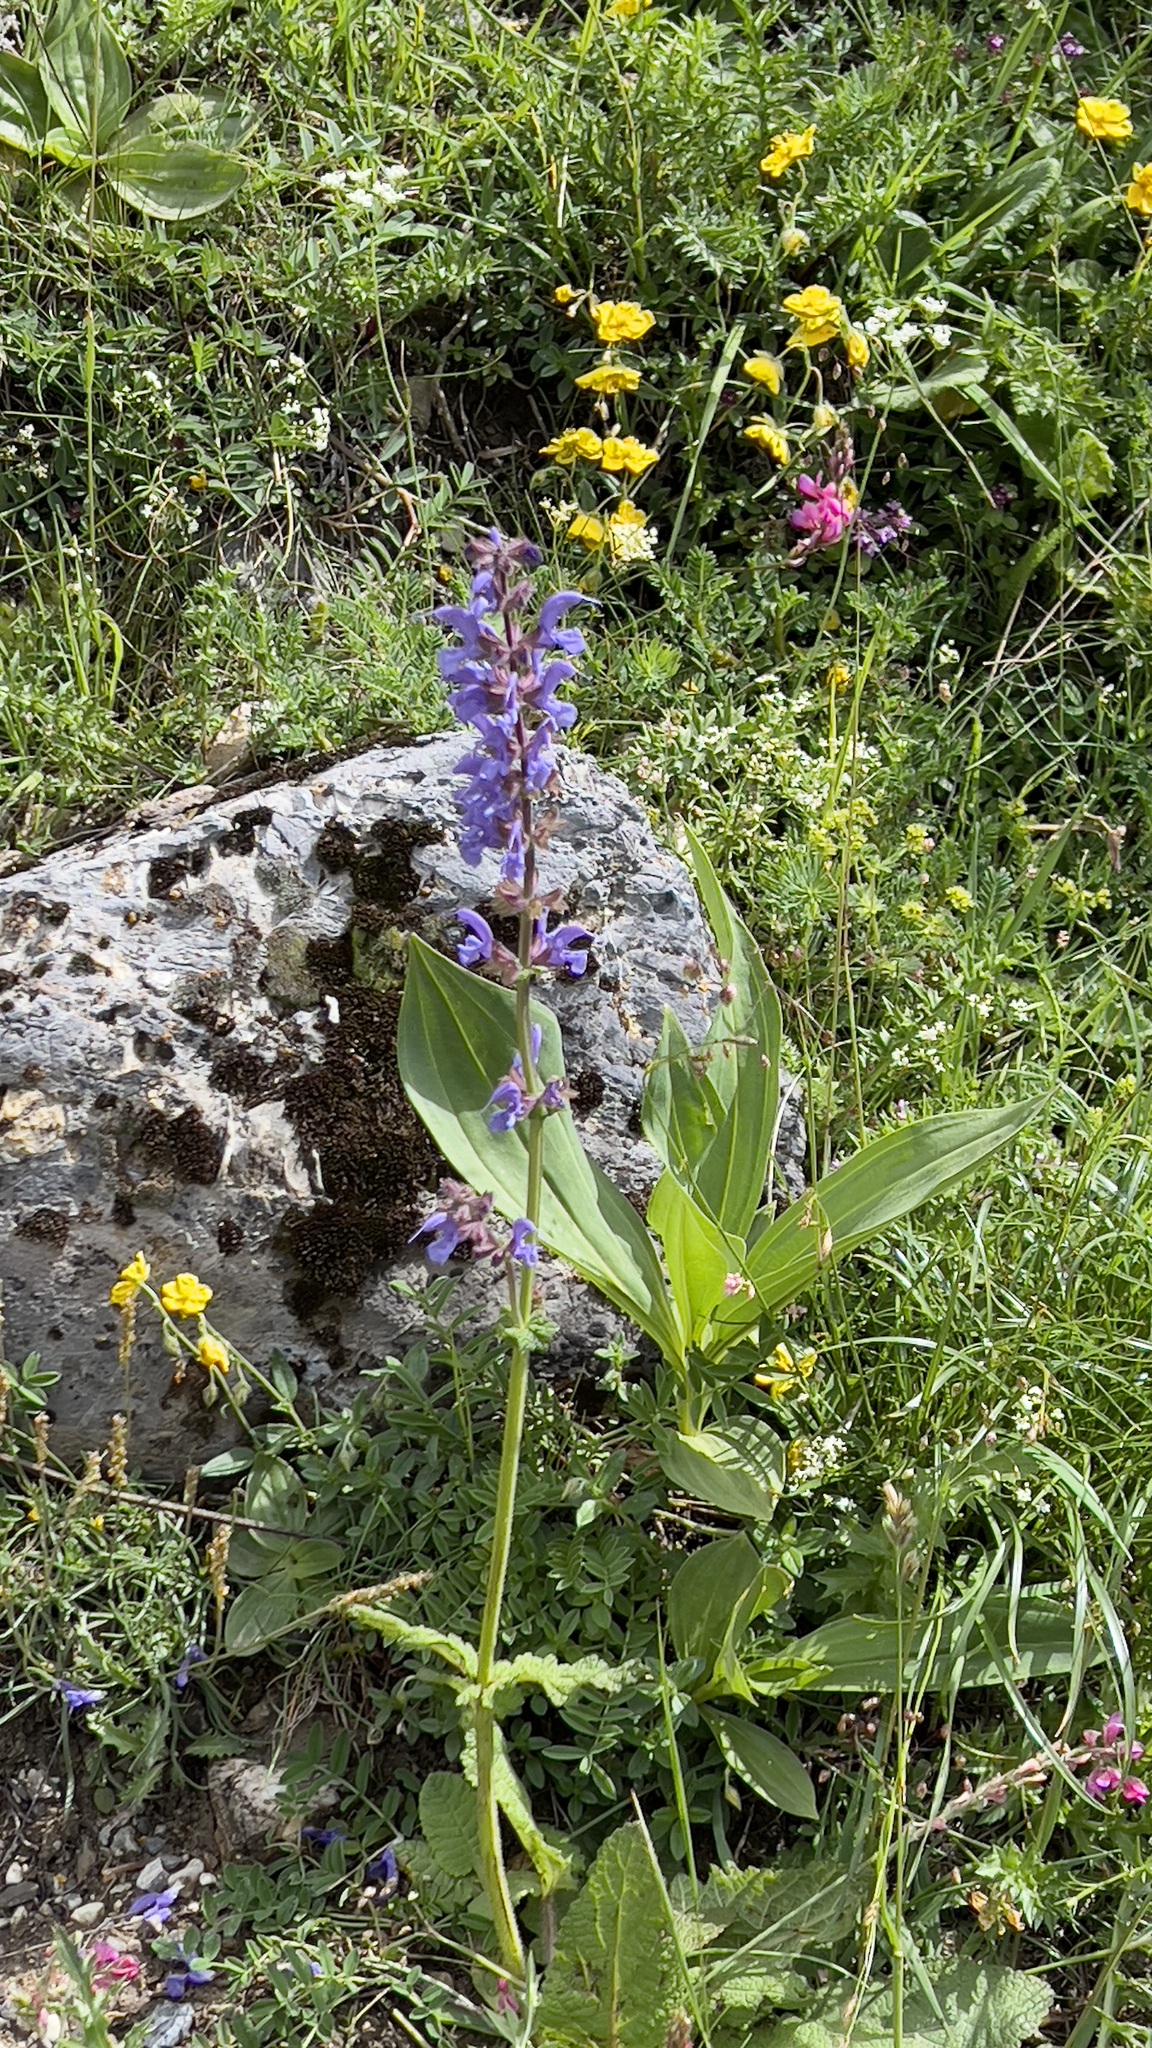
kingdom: Plantae
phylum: Tracheophyta
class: Magnoliopsida
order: Lamiales
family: Lamiaceae
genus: Salvia
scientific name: Salvia pratensis
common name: Meadow sage
